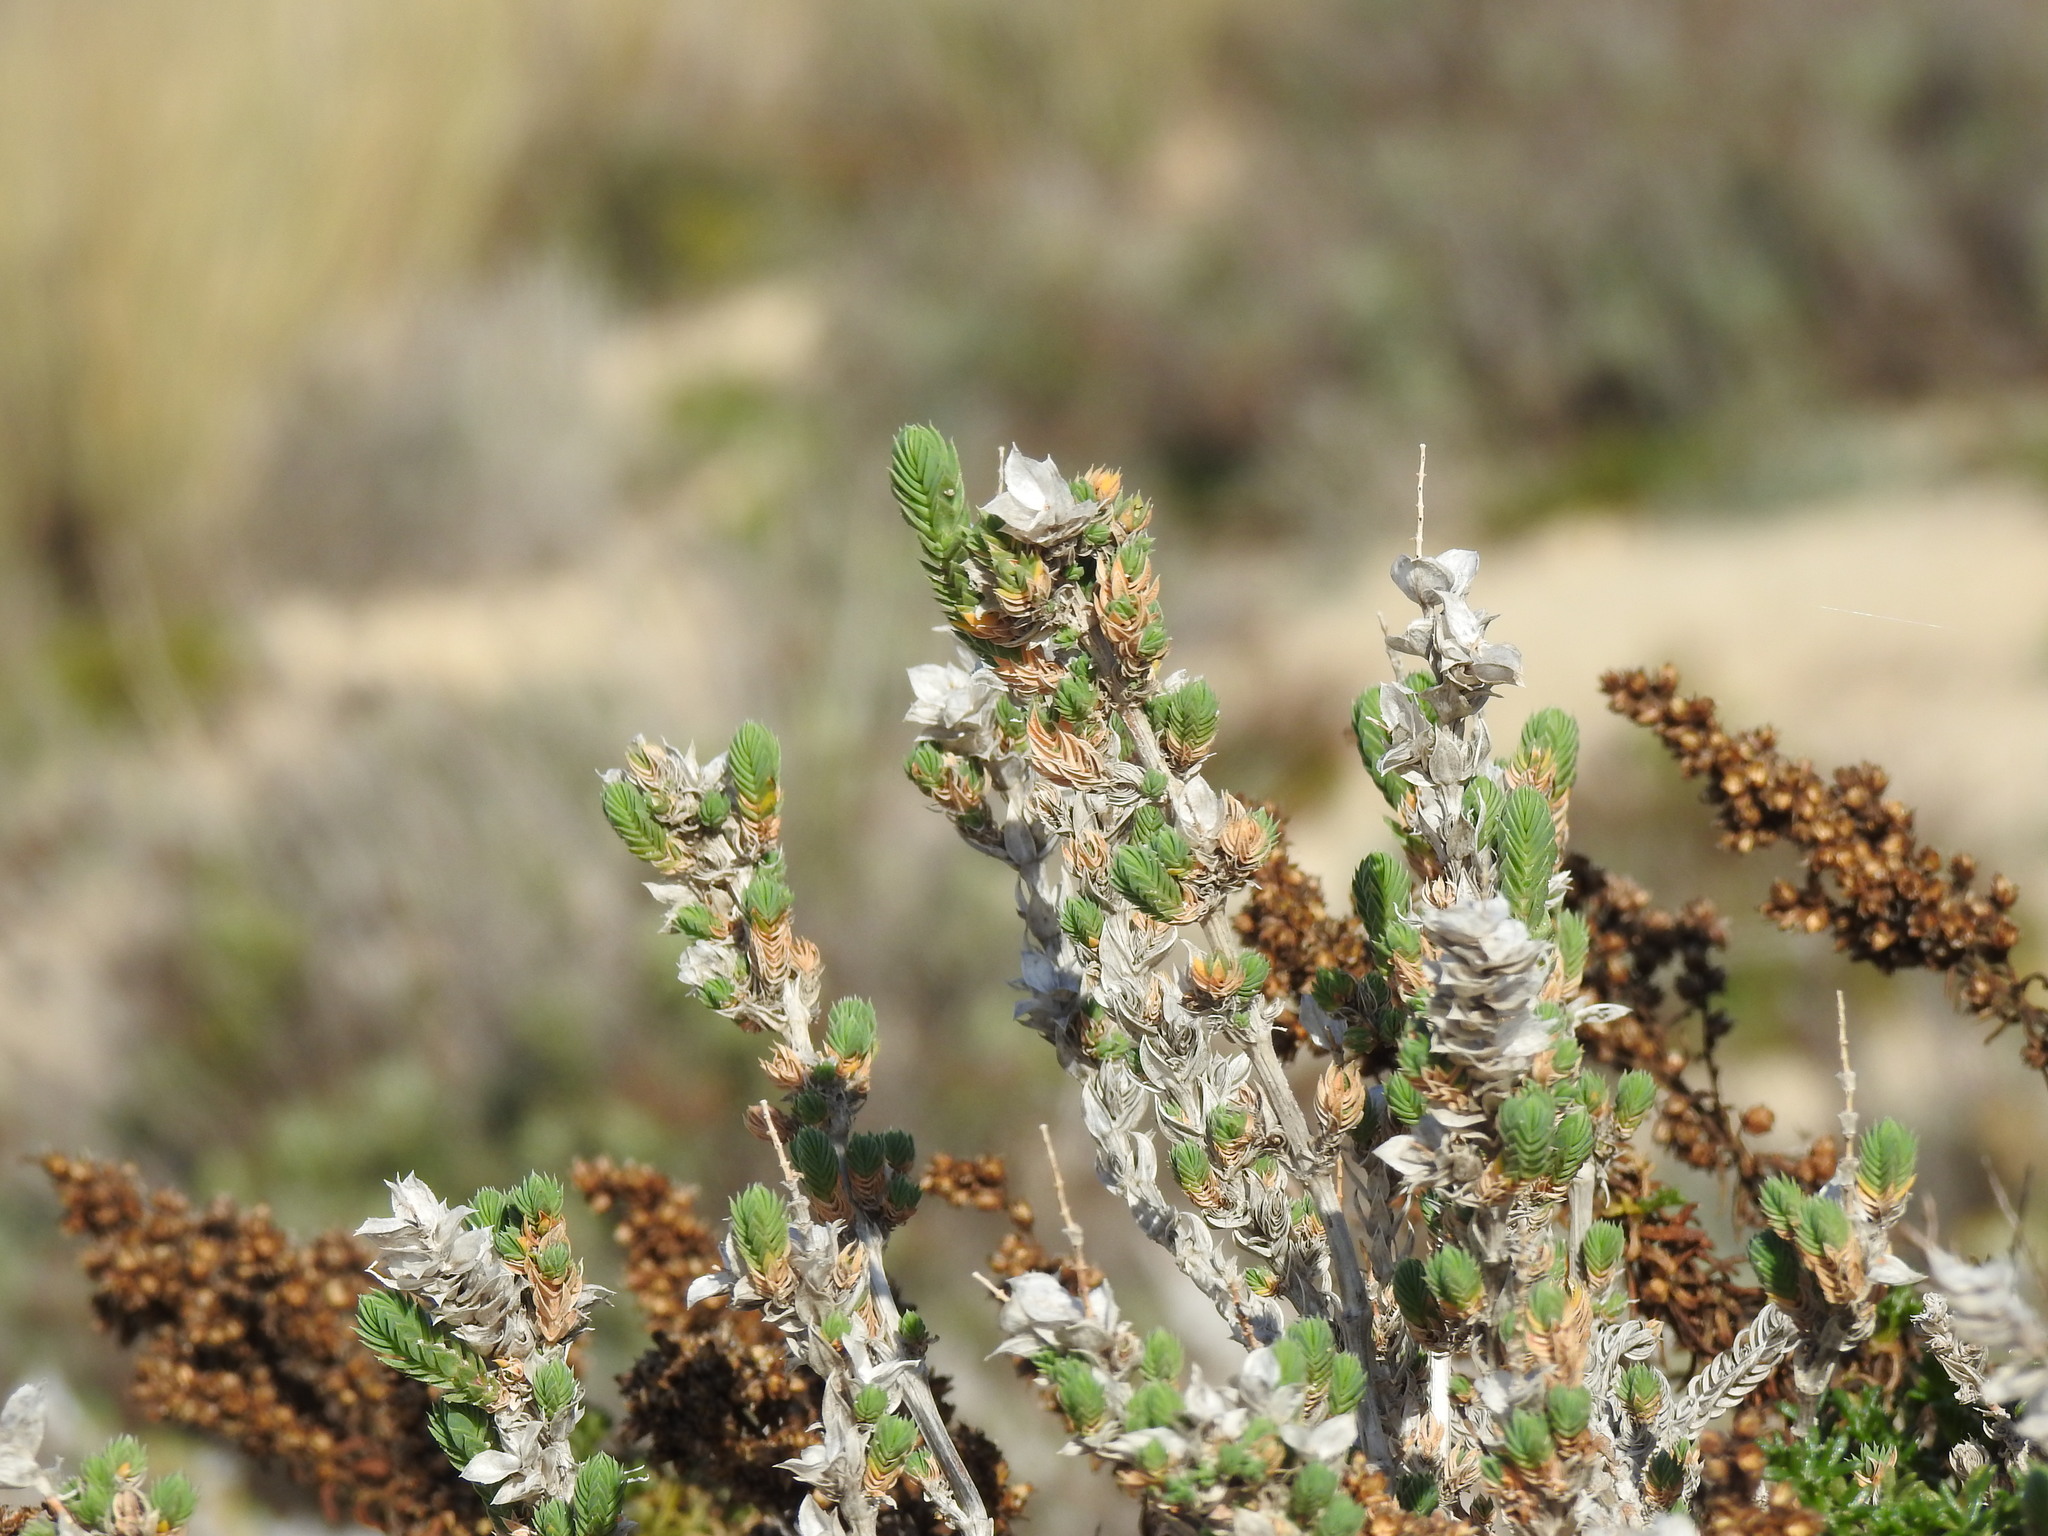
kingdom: Plantae
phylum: Tracheophyta
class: Magnoliopsida
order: Gentianales
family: Rubiaceae
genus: Crucianella
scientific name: Crucianella maritima
